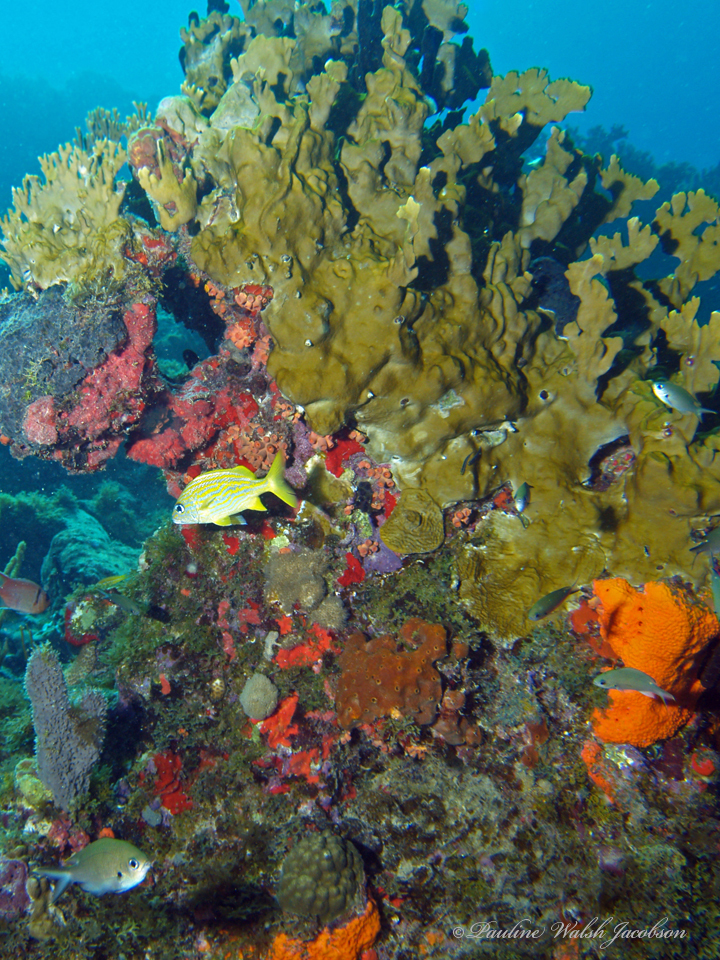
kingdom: Animalia
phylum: Cnidaria
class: Hydrozoa
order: Anthoathecata
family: Milleporidae
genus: Millepora
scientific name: Millepora complanata
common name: Bladed fire coral
